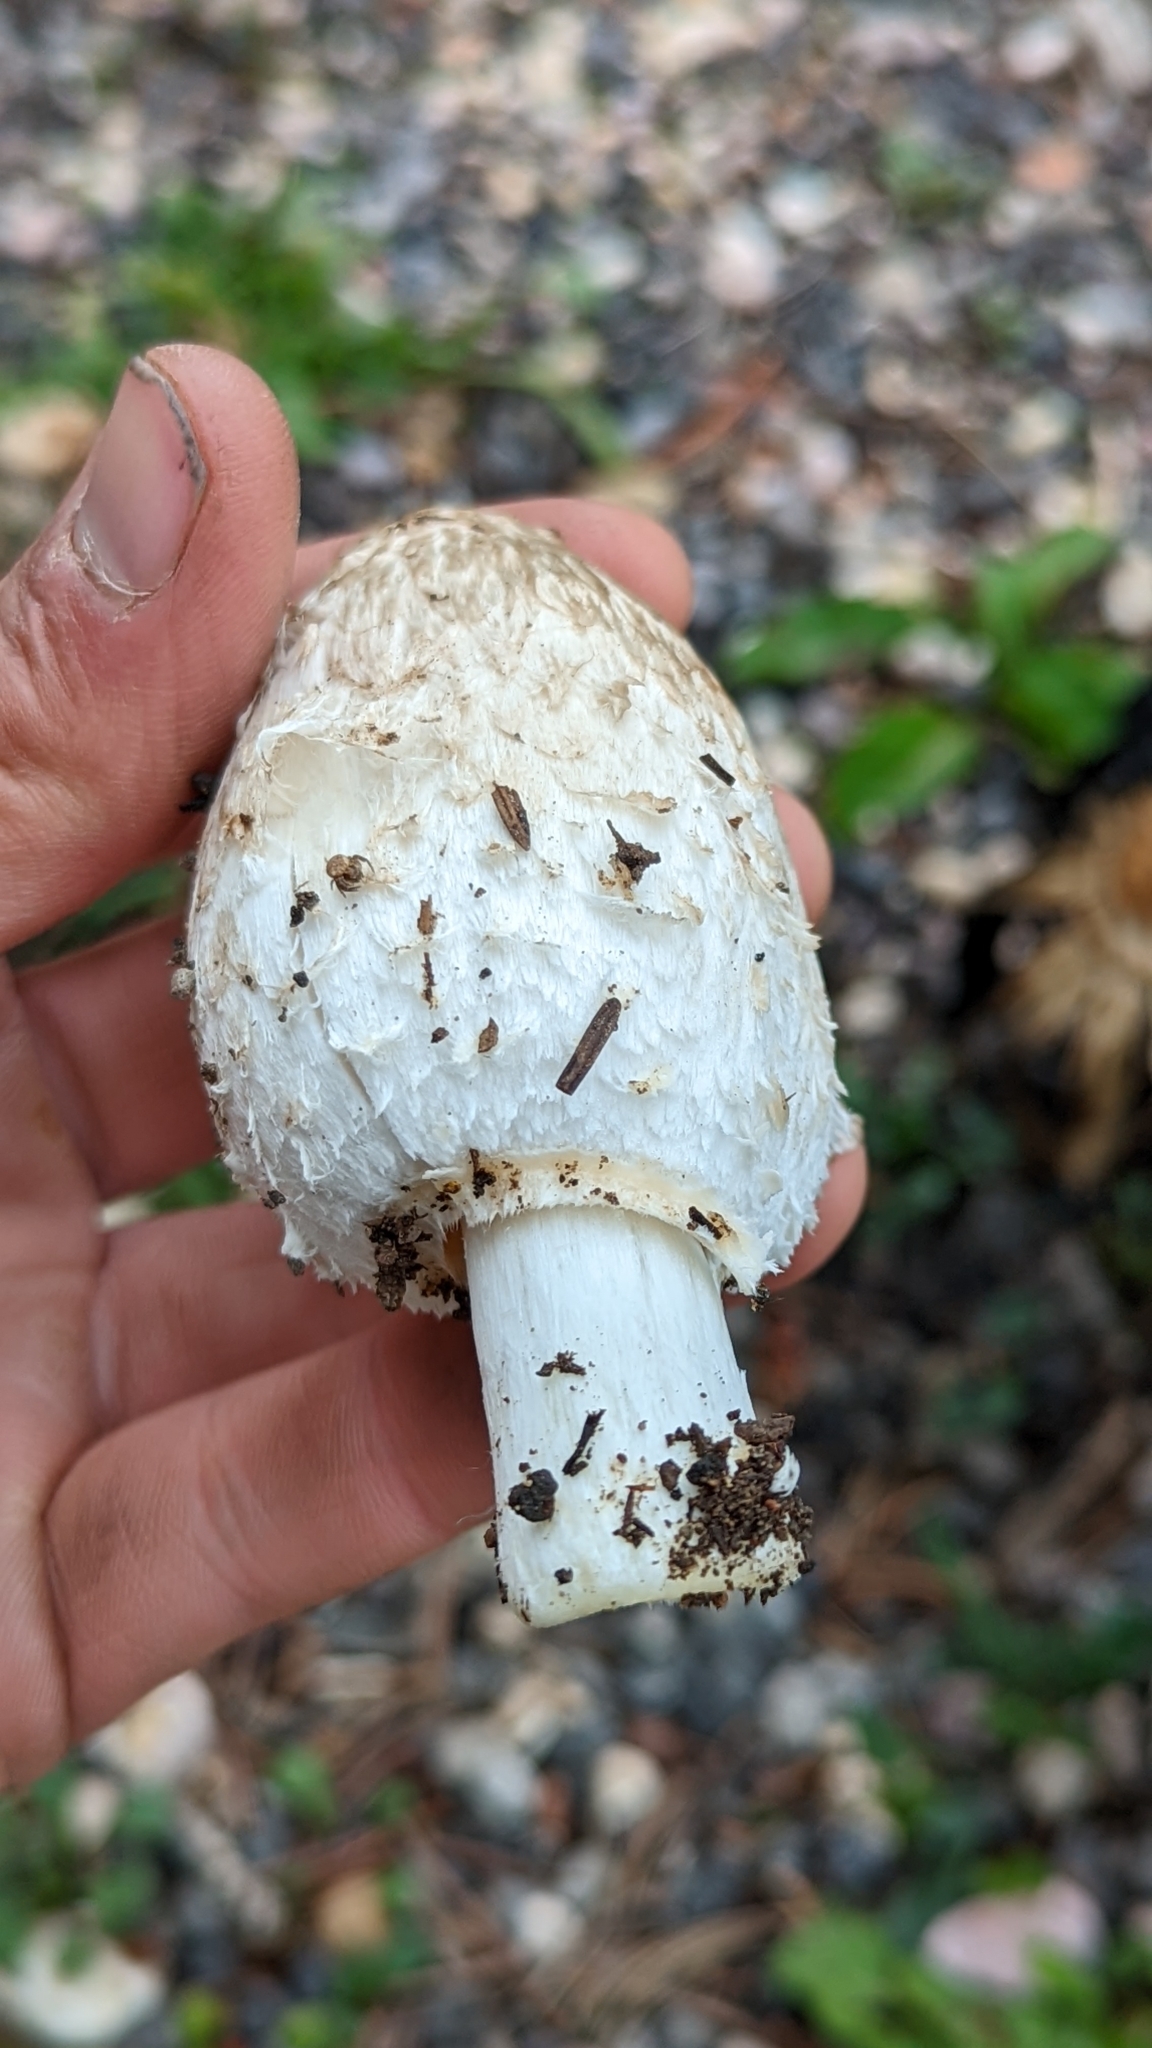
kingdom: Fungi
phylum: Basidiomycota
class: Agaricomycetes
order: Agaricales
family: Agaricaceae
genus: Coprinus
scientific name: Coprinus comatus
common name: Lawyer's wig
